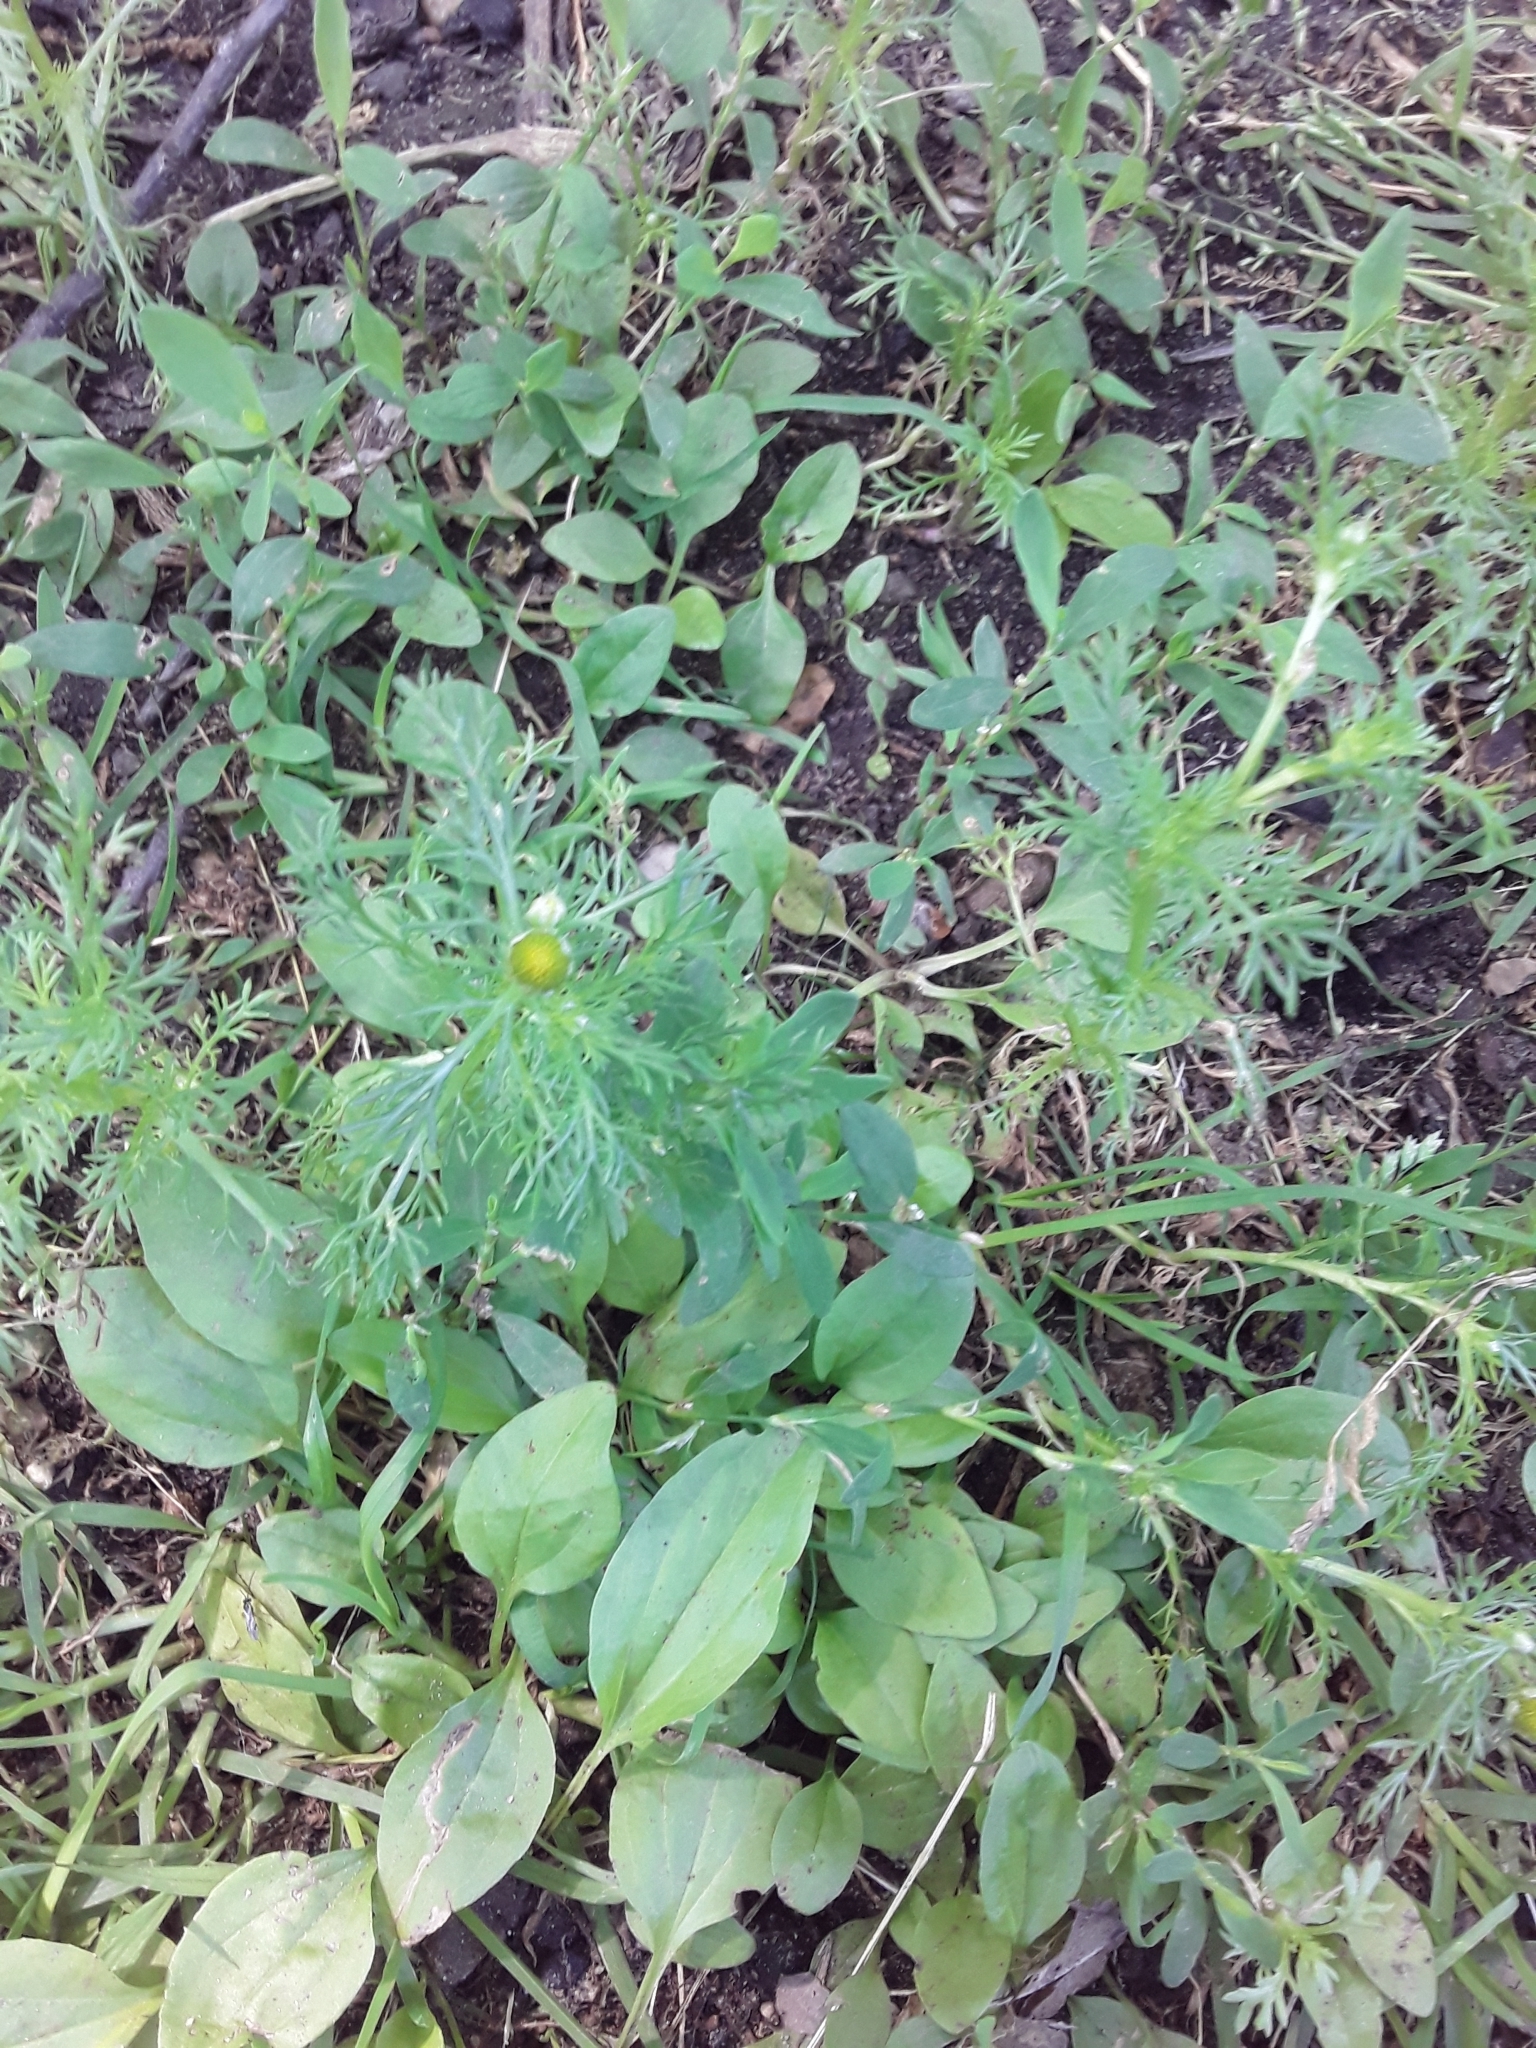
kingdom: Plantae
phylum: Tracheophyta
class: Magnoliopsida
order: Asterales
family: Asteraceae
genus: Matricaria
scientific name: Matricaria discoidea
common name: Disc mayweed
